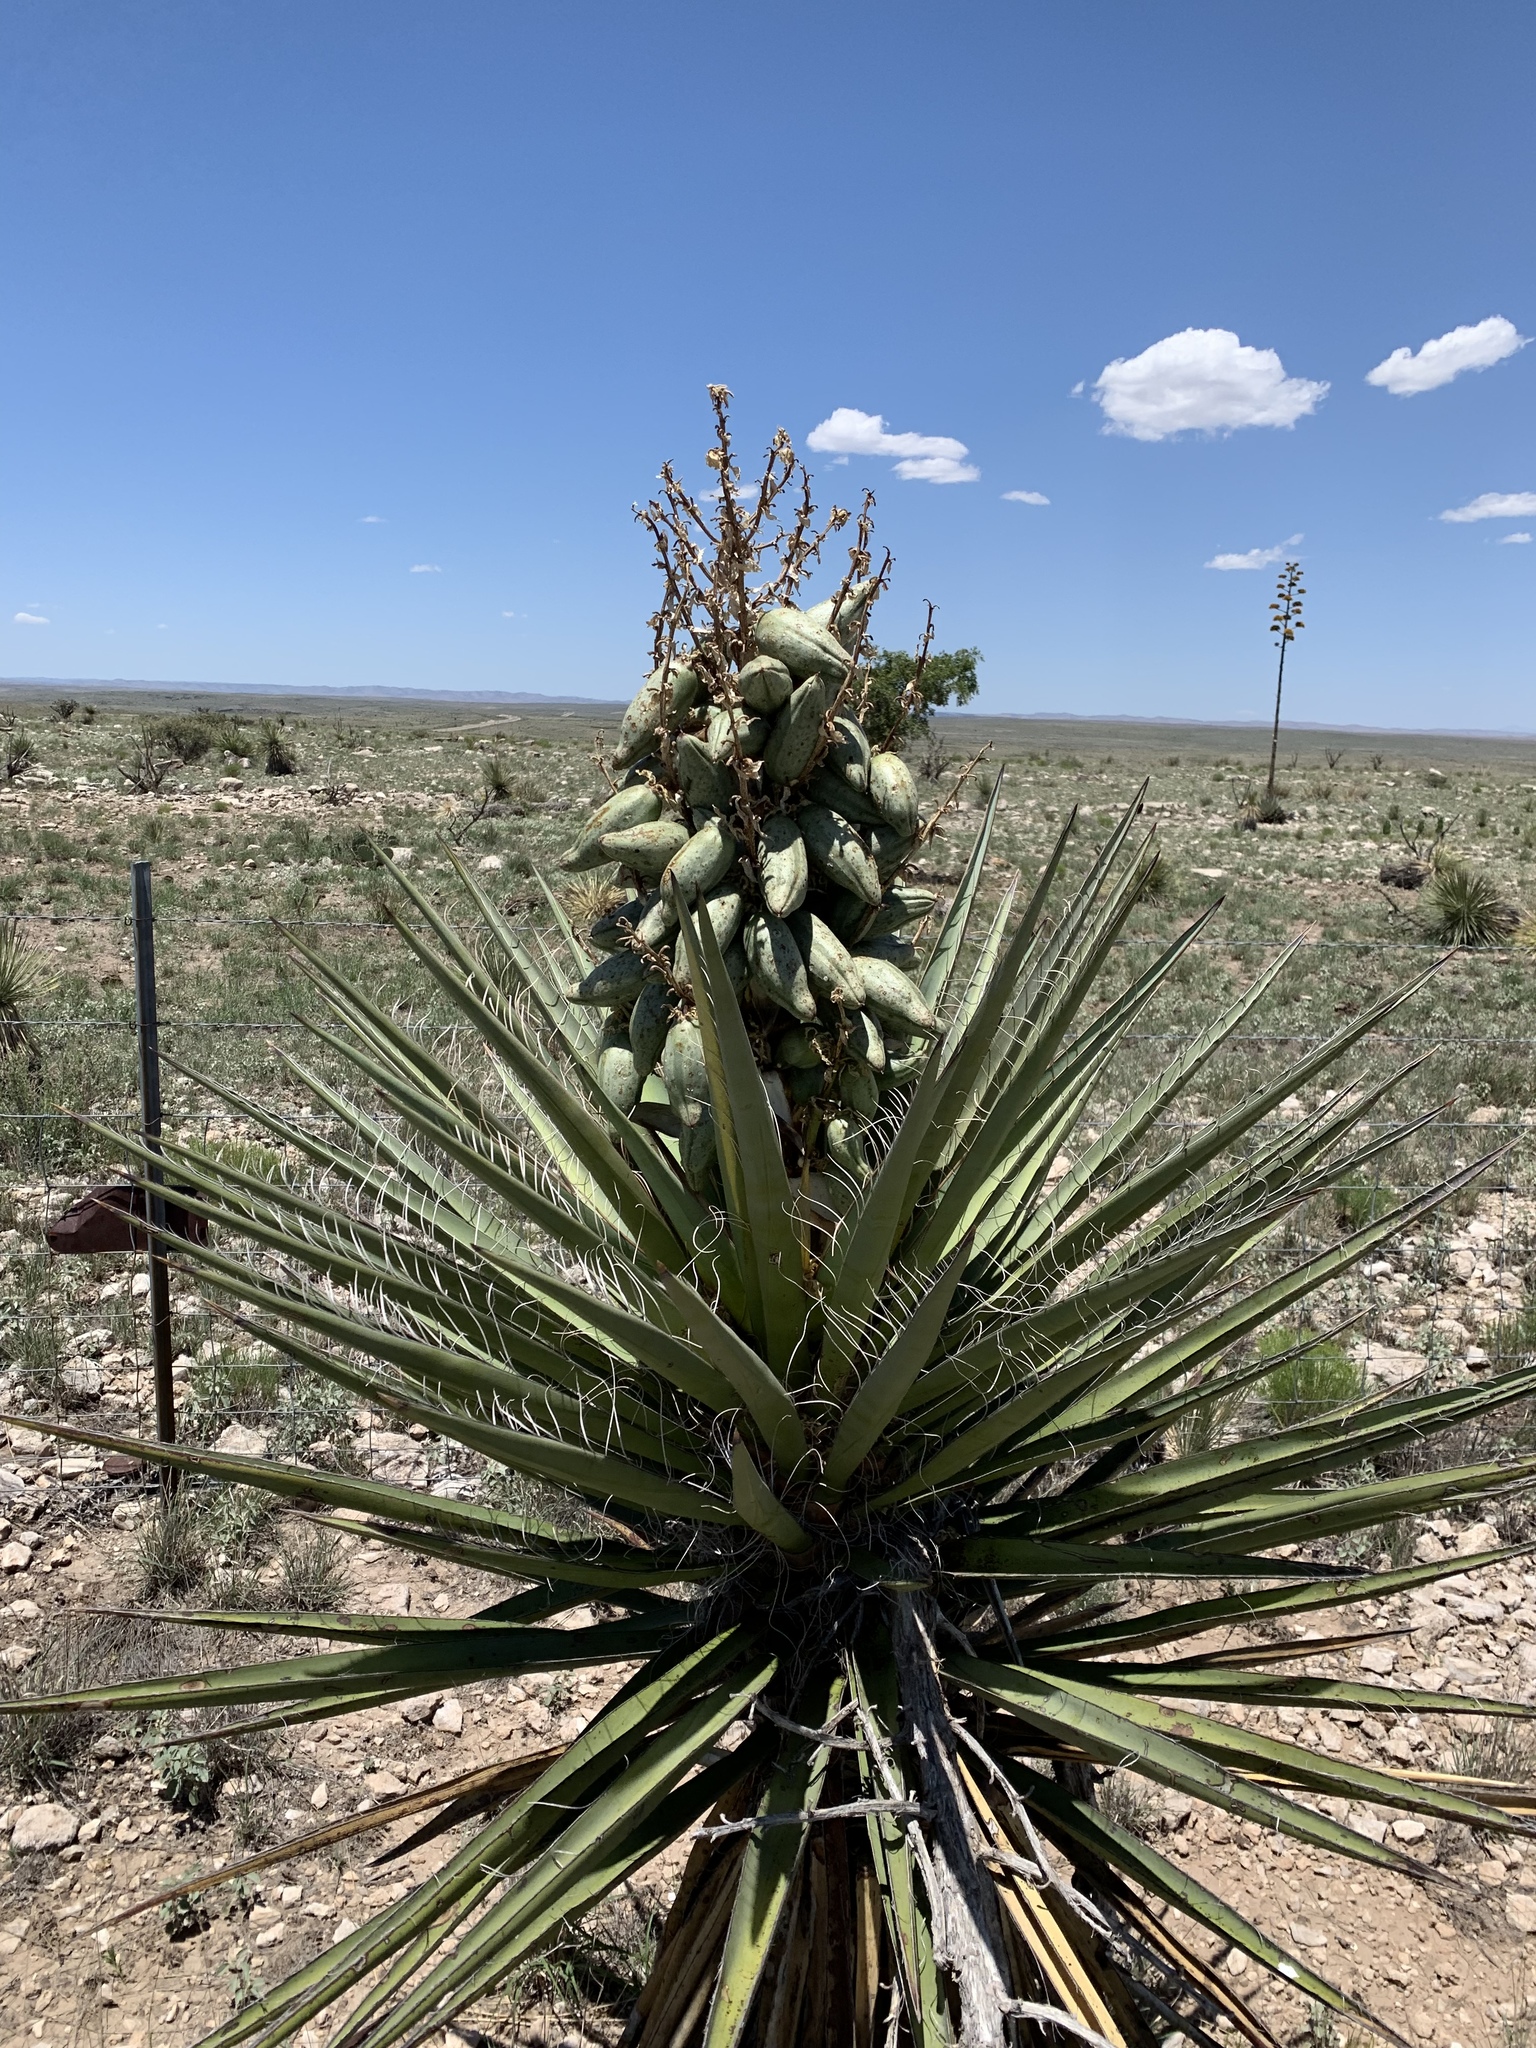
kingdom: Plantae
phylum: Tracheophyta
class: Liliopsida
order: Asparagales
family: Asparagaceae
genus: Yucca
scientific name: Yucca treculiana
